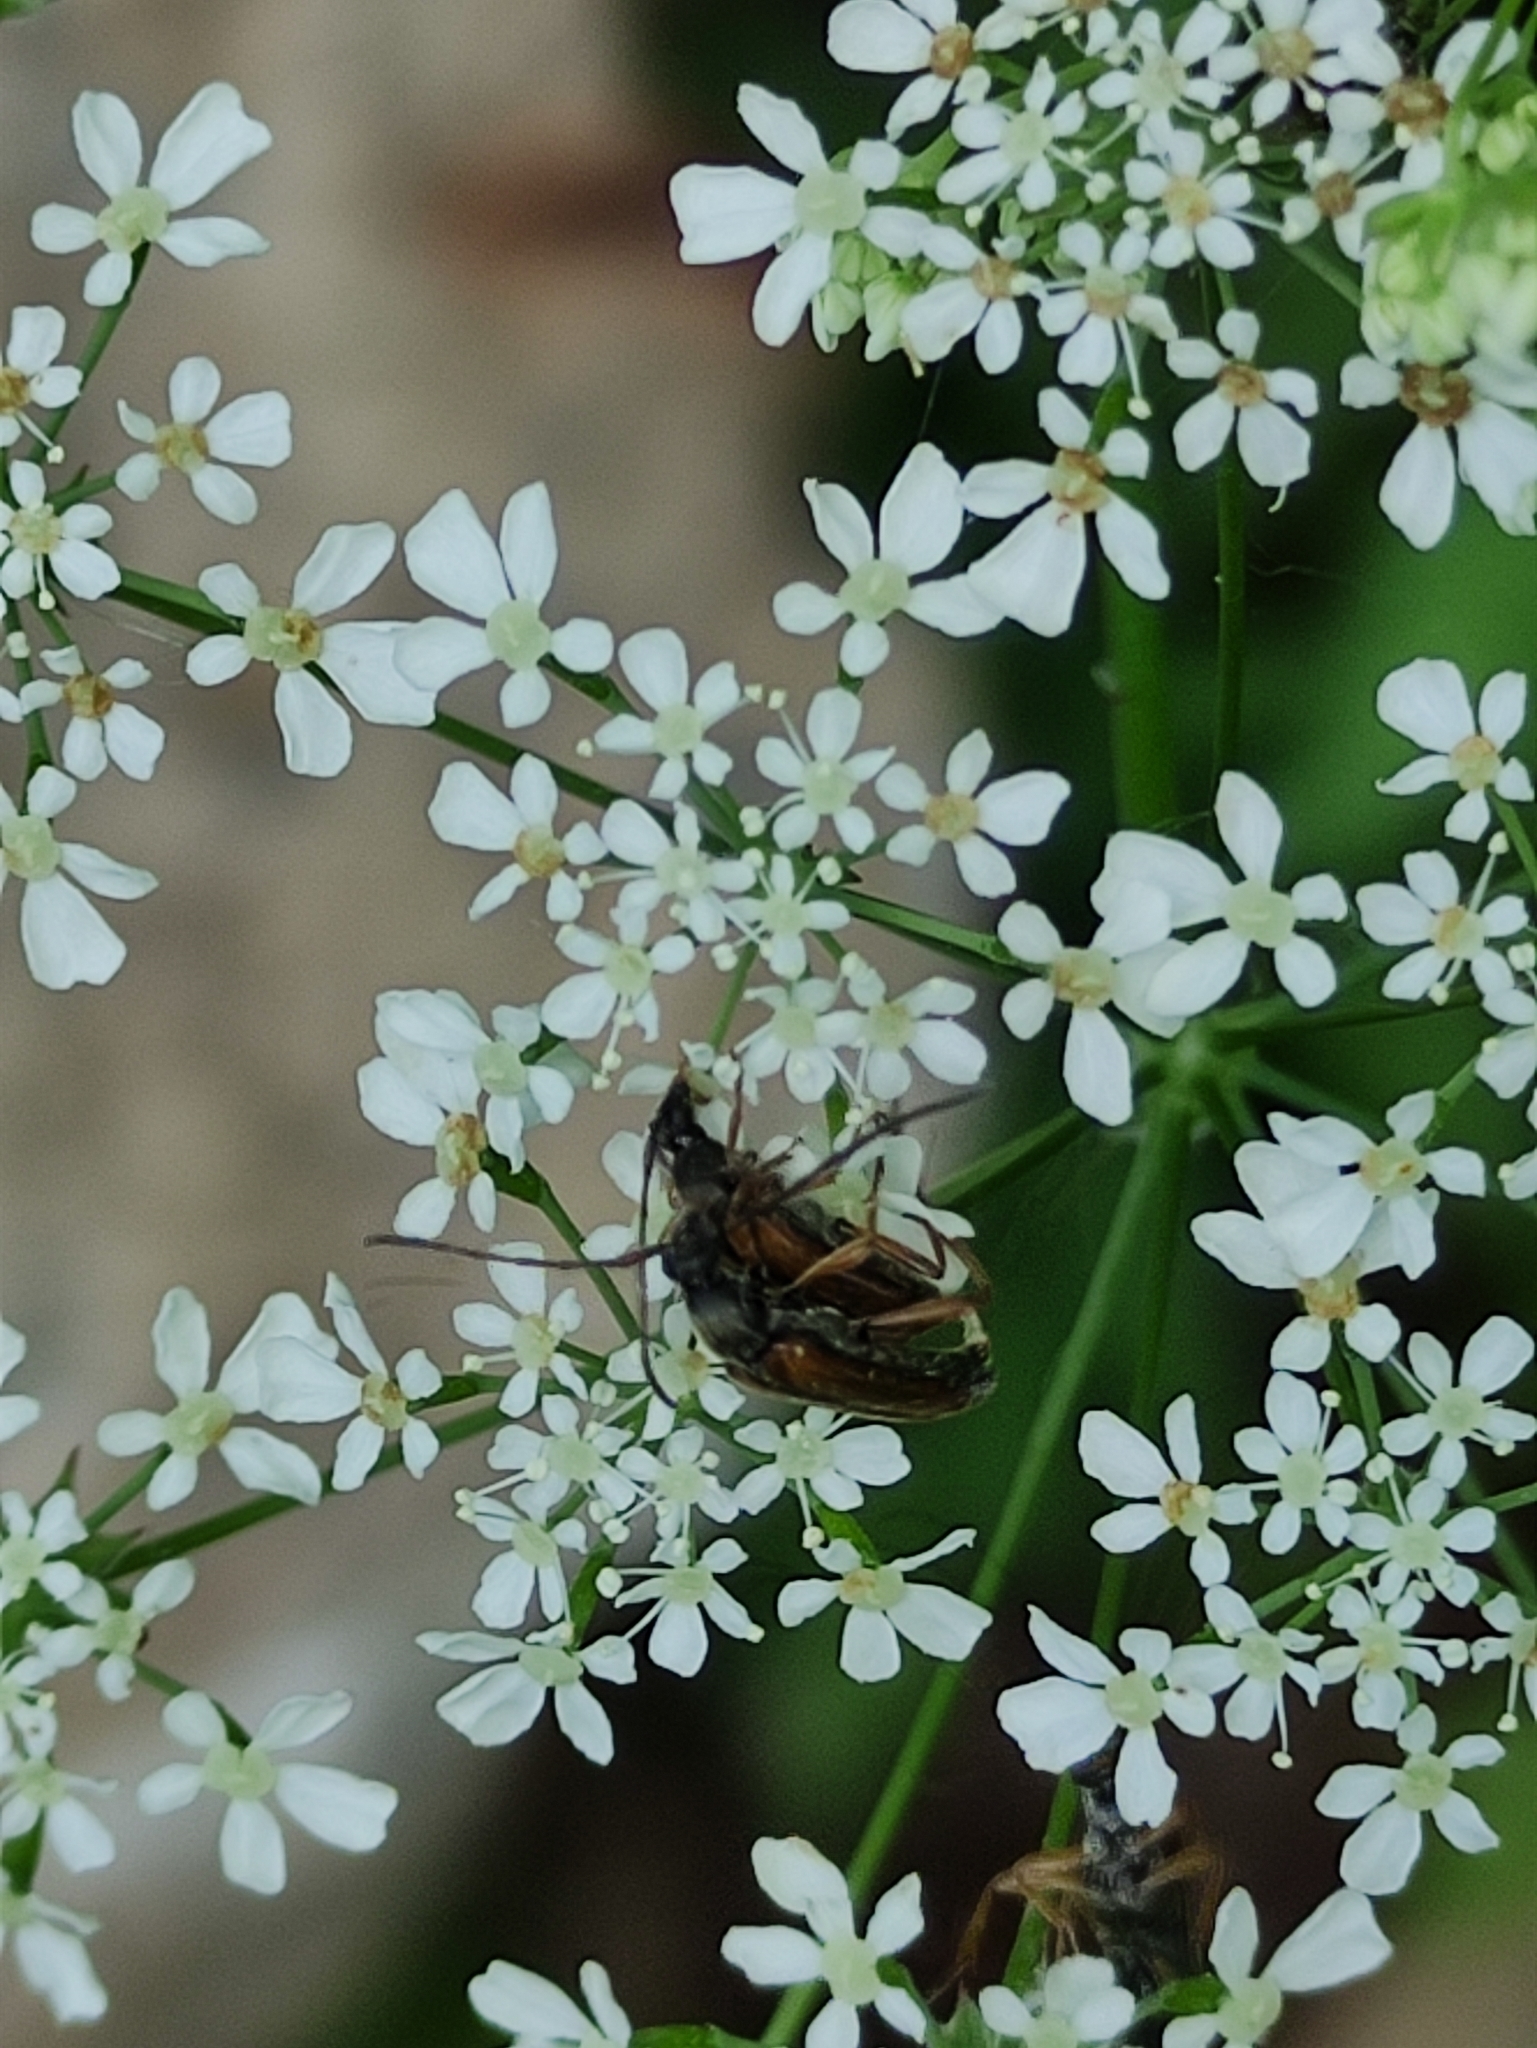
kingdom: Animalia
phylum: Arthropoda
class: Insecta
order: Coleoptera
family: Cerambycidae
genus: Alosterna
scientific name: Alosterna tabacicolor
